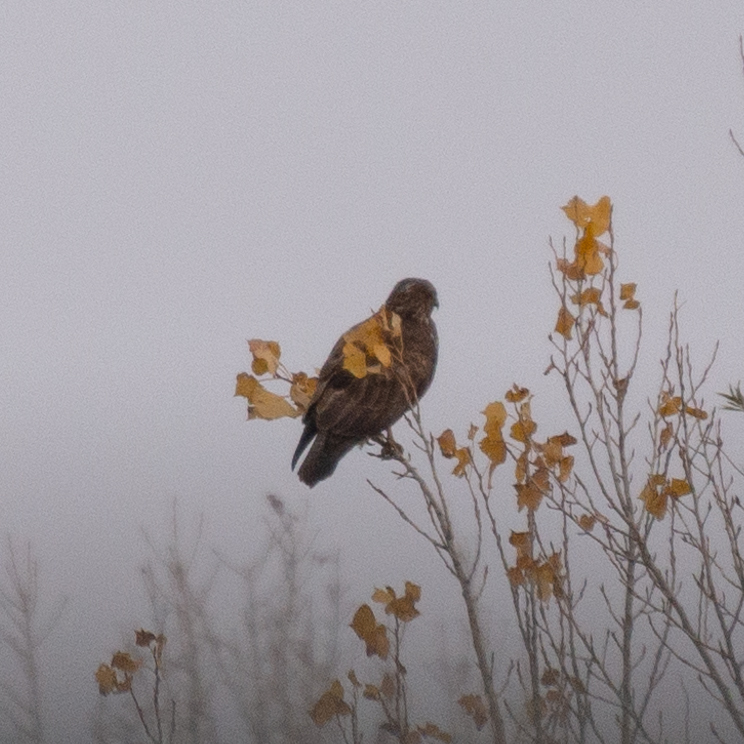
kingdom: Animalia
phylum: Chordata
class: Aves
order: Accipitriformes
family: Accipitridae
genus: Buteo
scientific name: Buteo buteo
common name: Common buzzard
